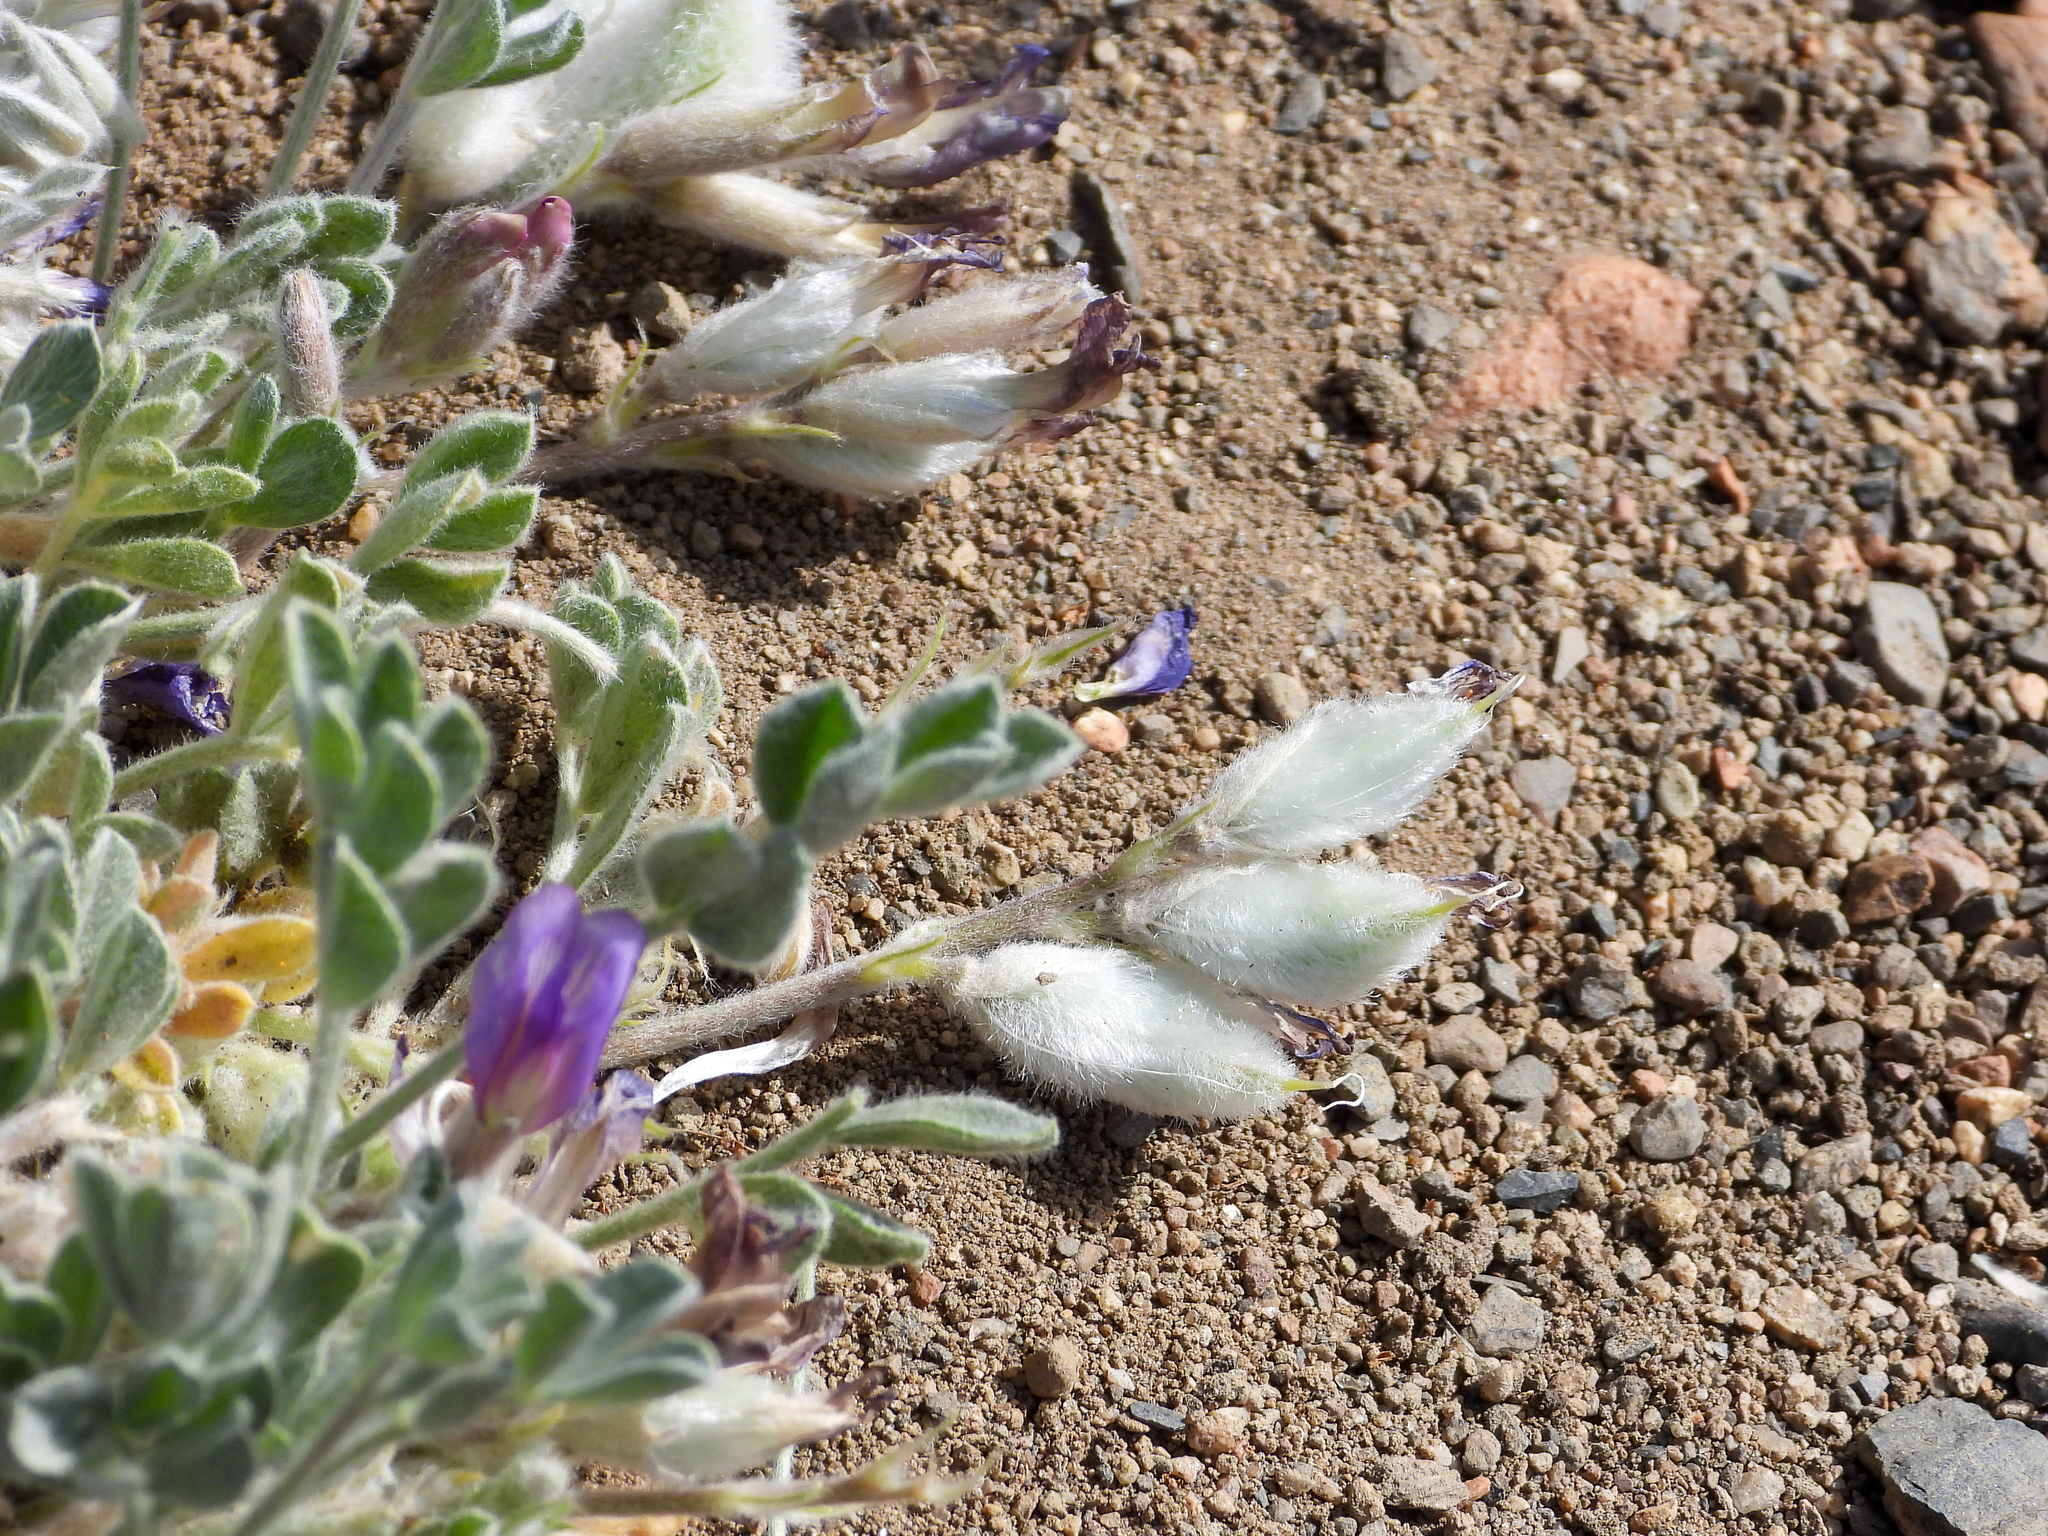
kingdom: Plantae
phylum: Tracheophyta
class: Magnoliopsida
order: Fabales
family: Fabaceae
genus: Astragalus
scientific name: Astragalus purshii
